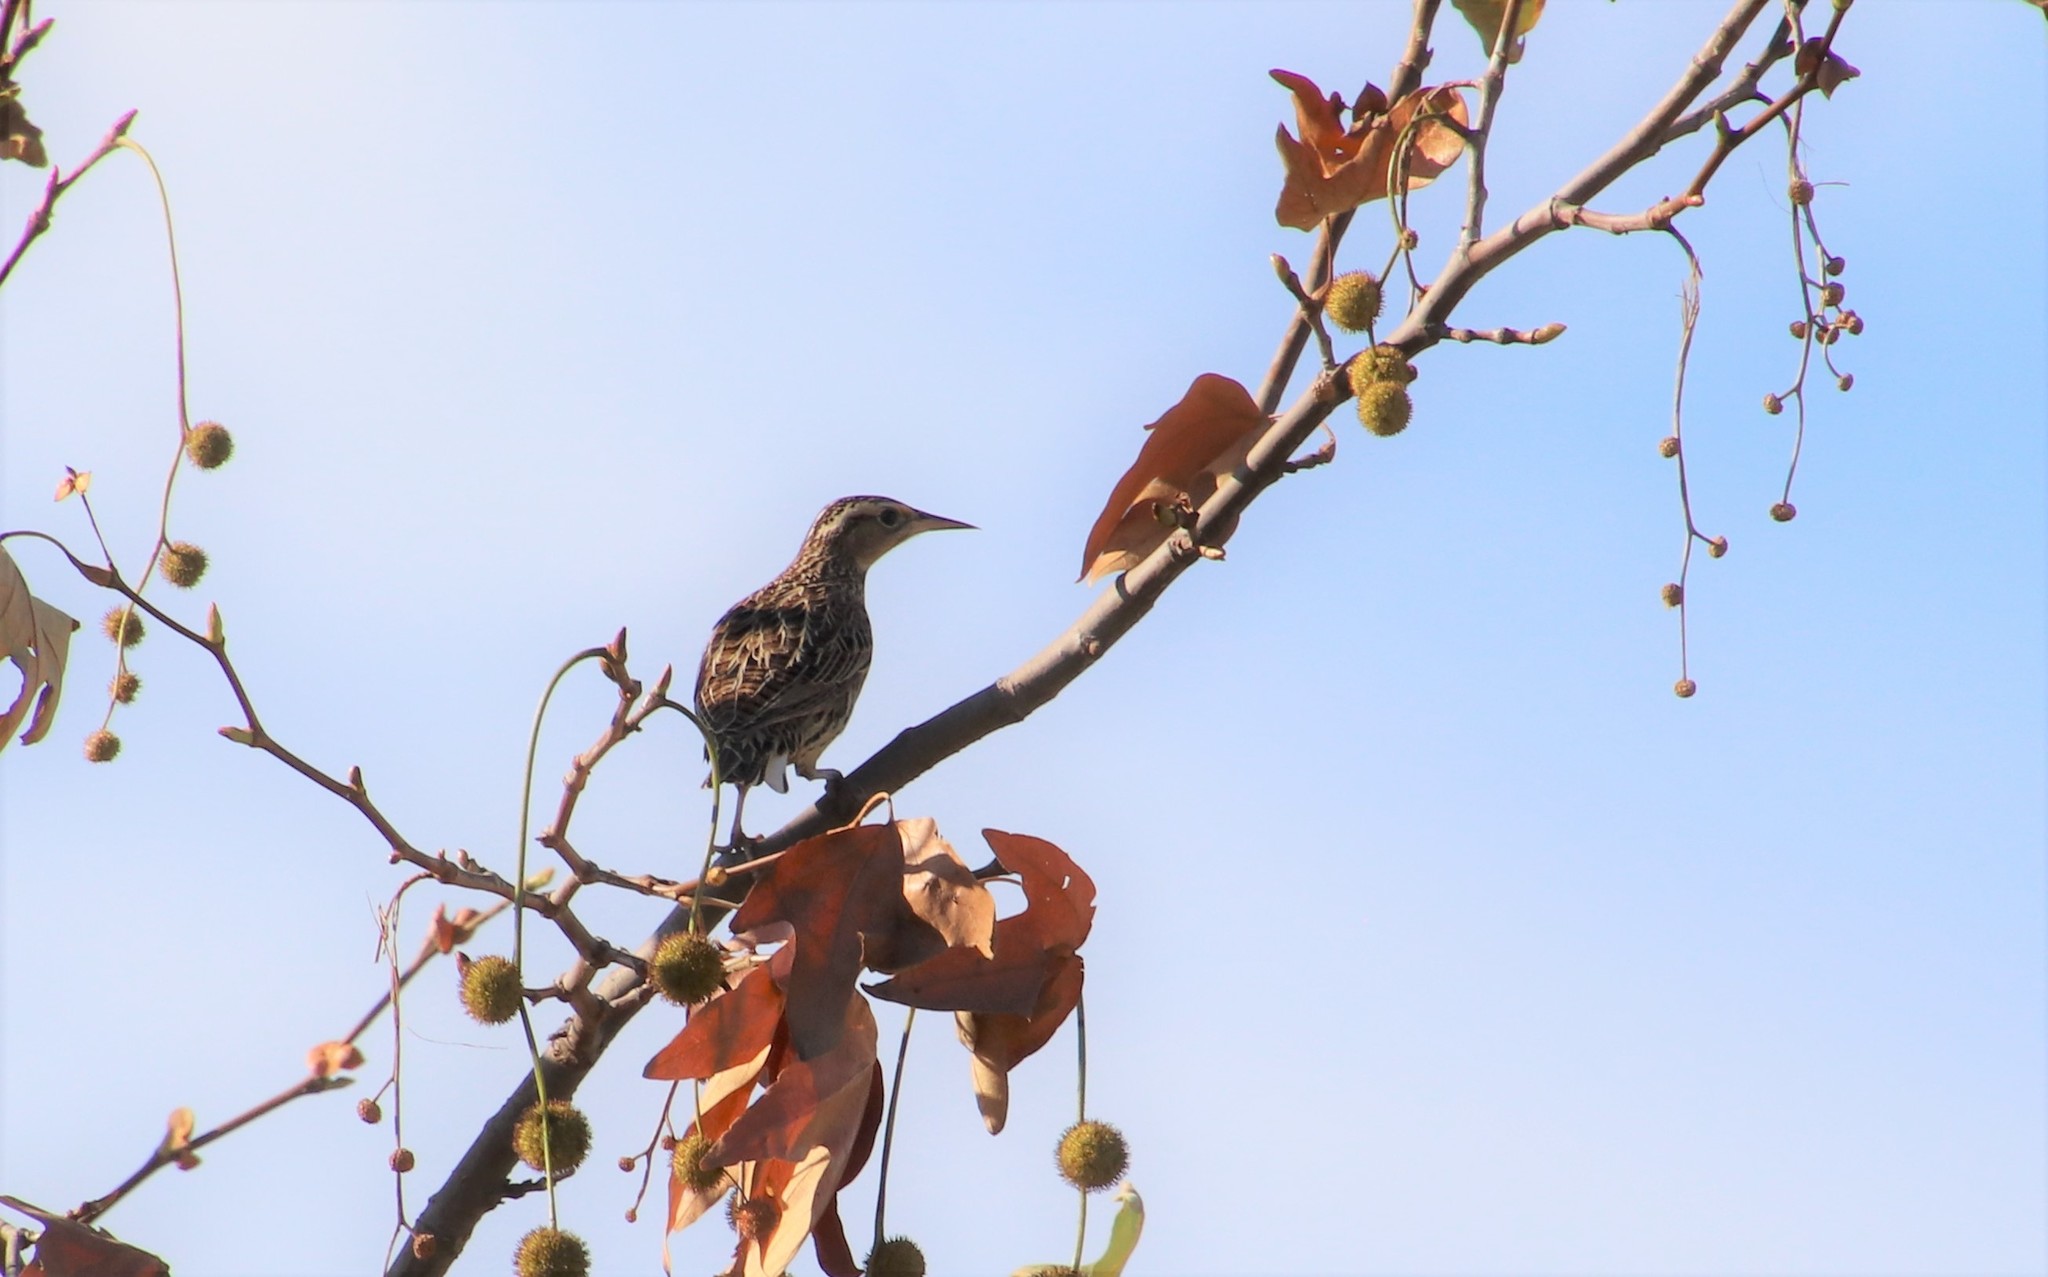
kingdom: Animalia
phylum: Chordata
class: Aves
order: Passeriformes
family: Icteridae
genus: Sturnella
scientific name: Sturnella neglecta
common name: Western meadowlark
